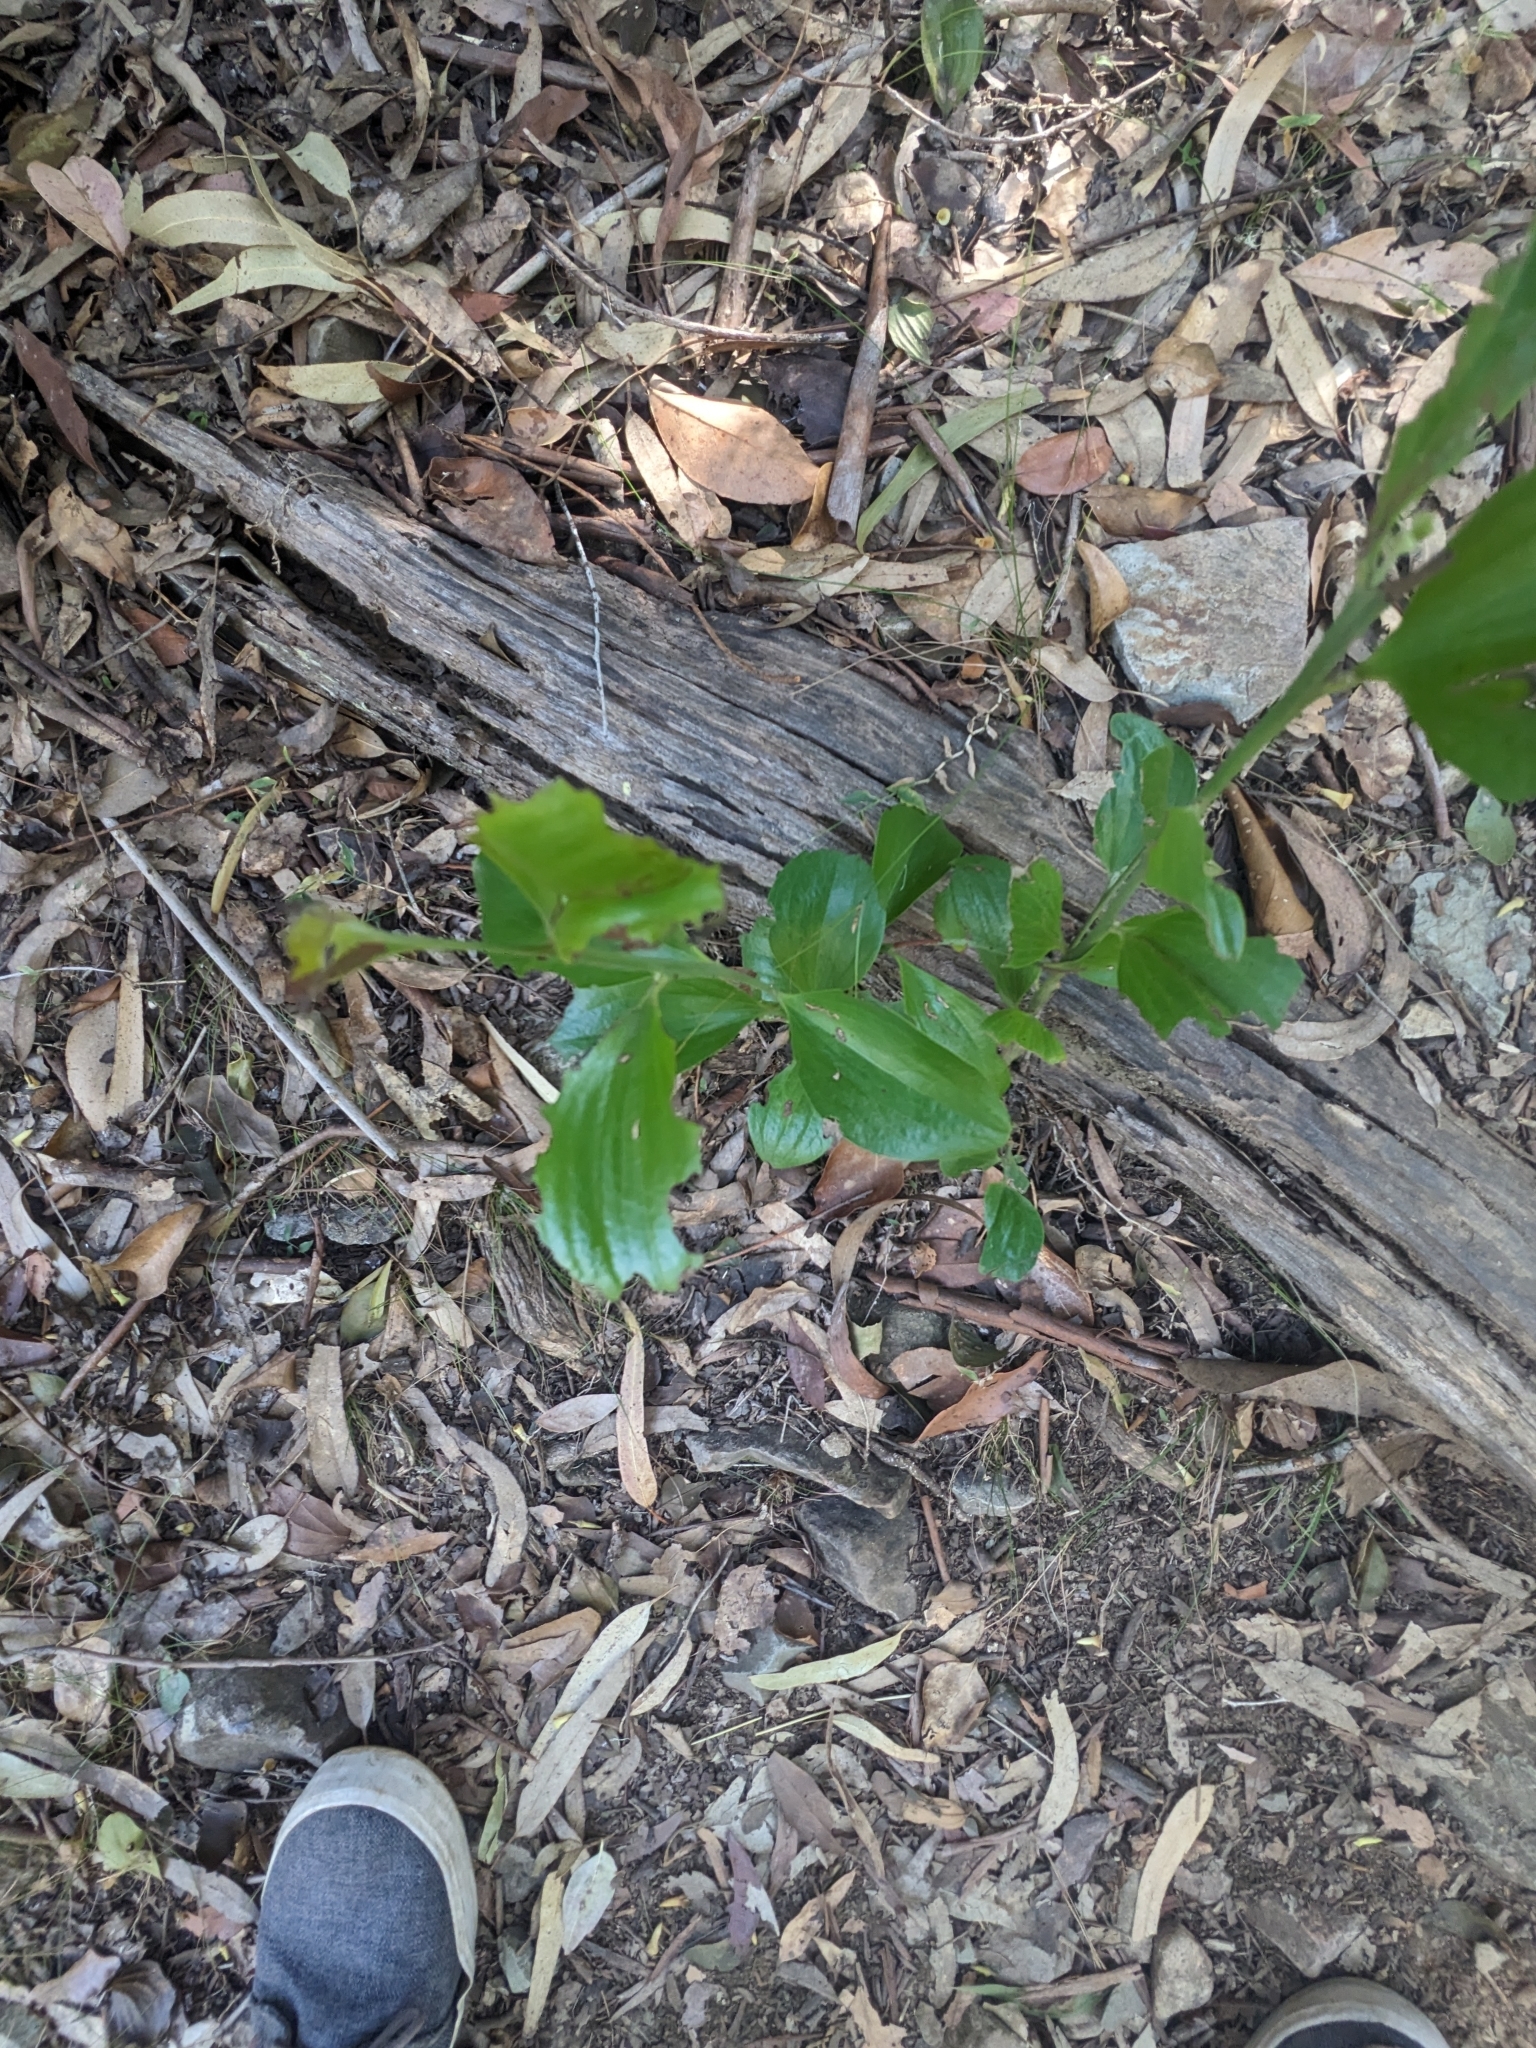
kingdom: Plantae
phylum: Tracheophyta
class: Magnoliopsida
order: Santalales
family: Santalaceae
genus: Exocarpos
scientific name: Exocarpos latifolius
